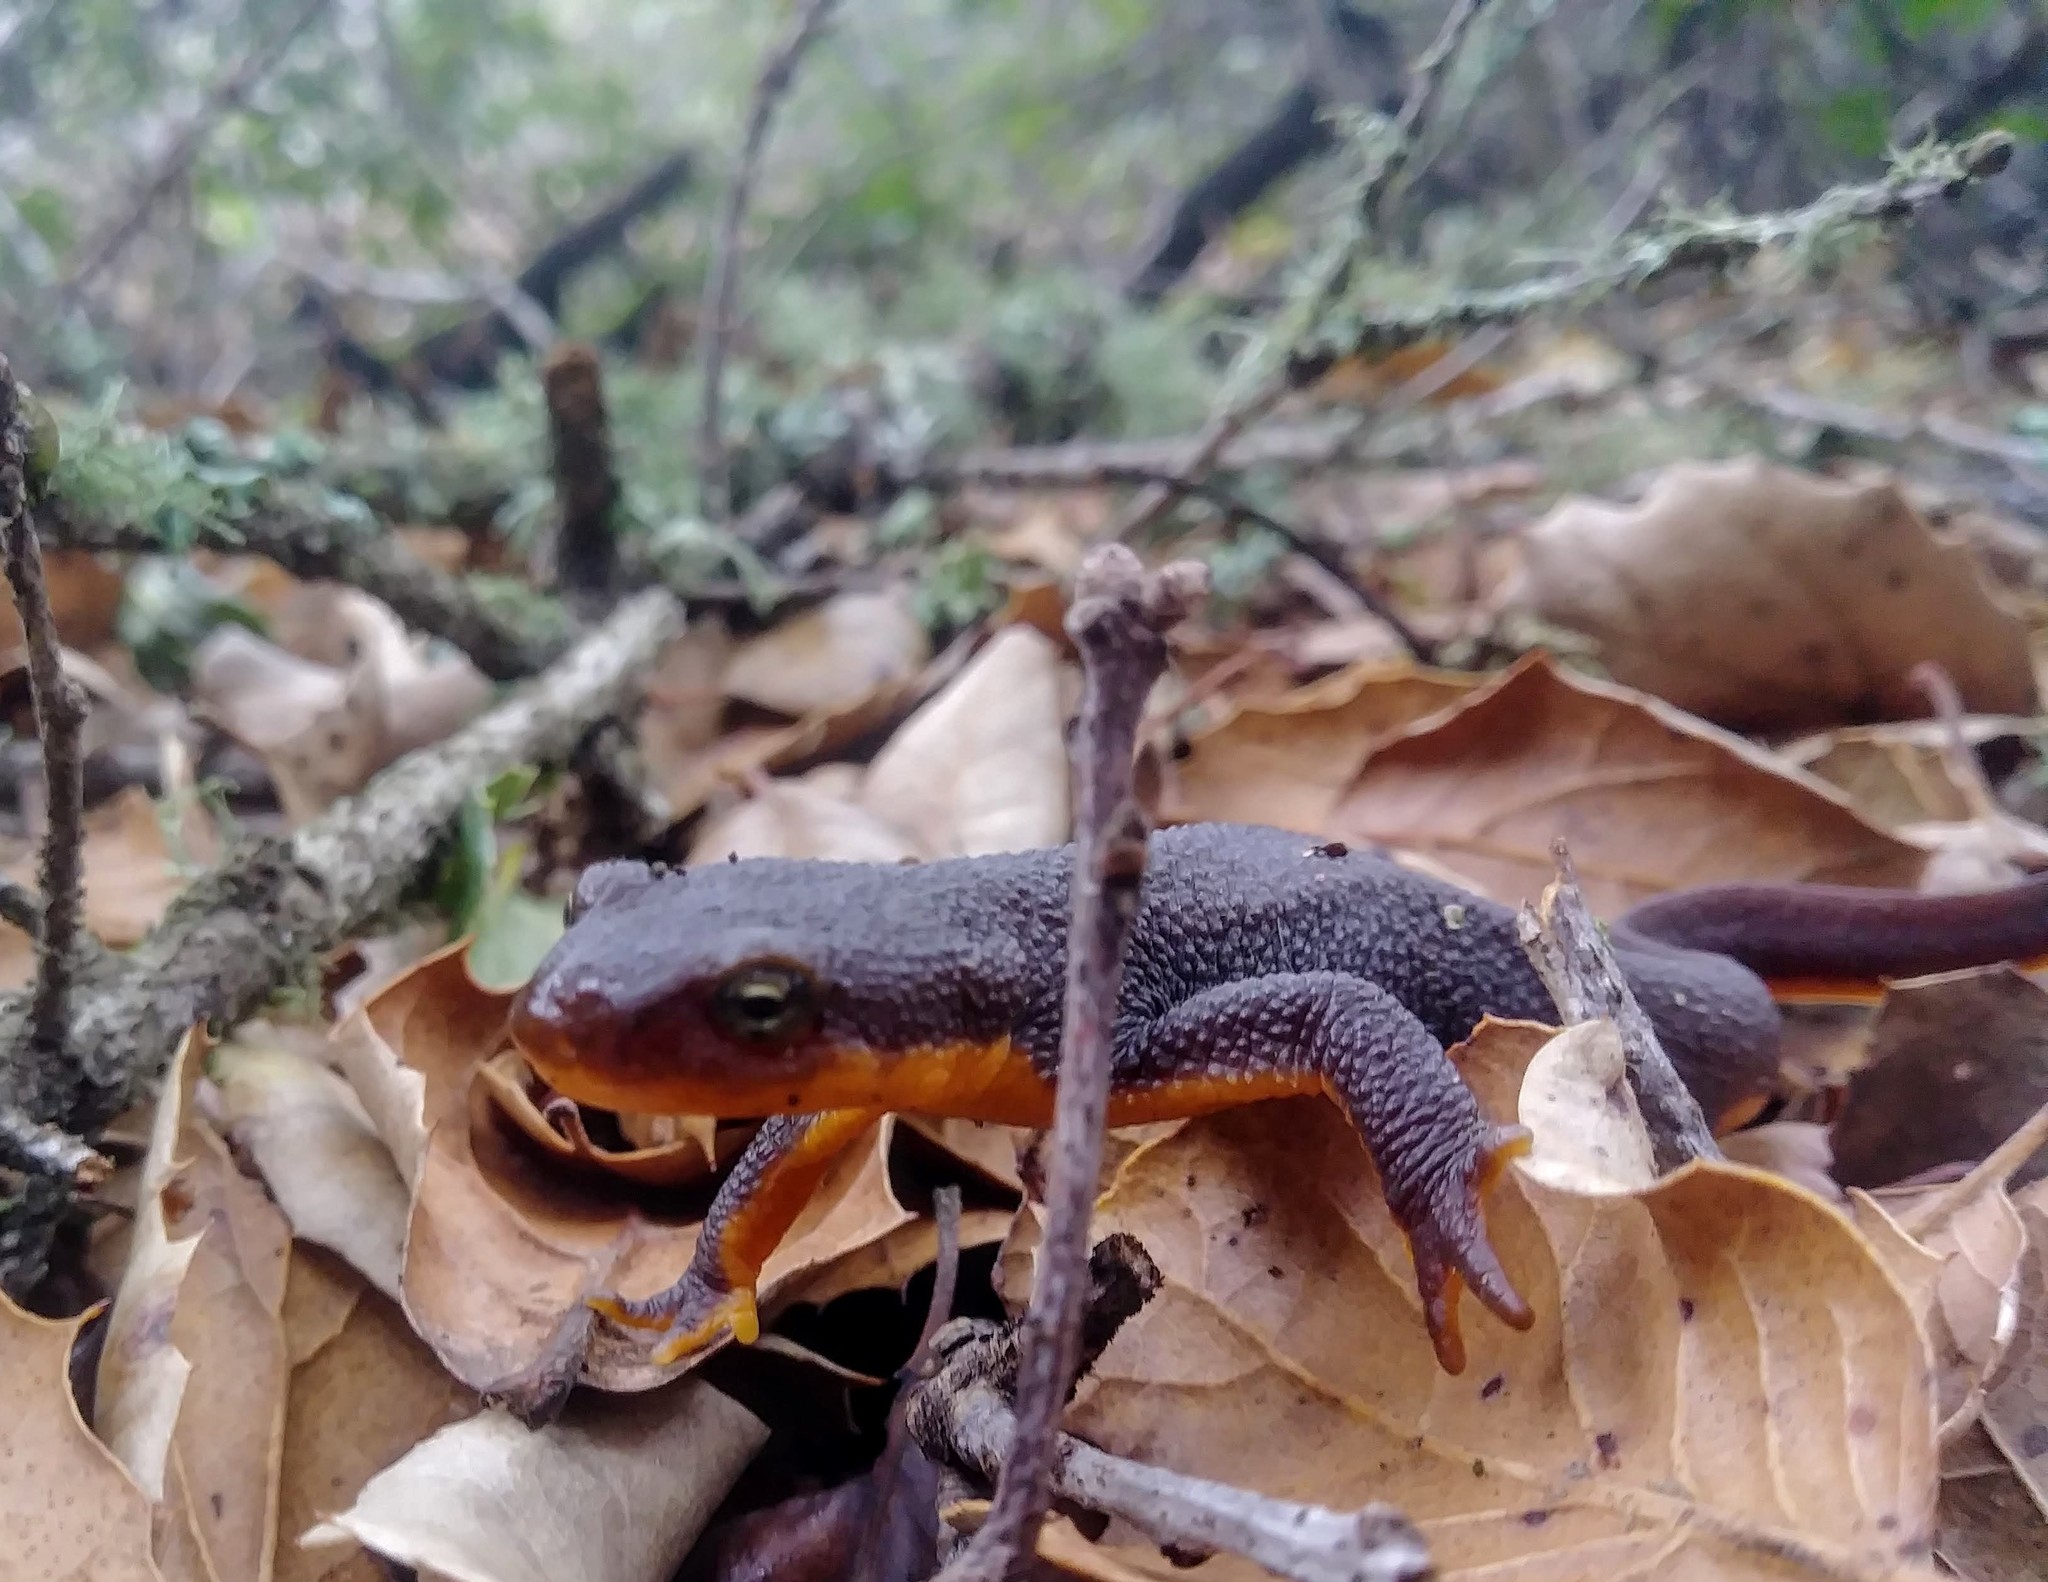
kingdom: Animalia
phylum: Chordata
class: Amphibia
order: Caudata
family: Salamandridae
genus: Taricha
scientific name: Taricha granulosa
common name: Roughskin newt
